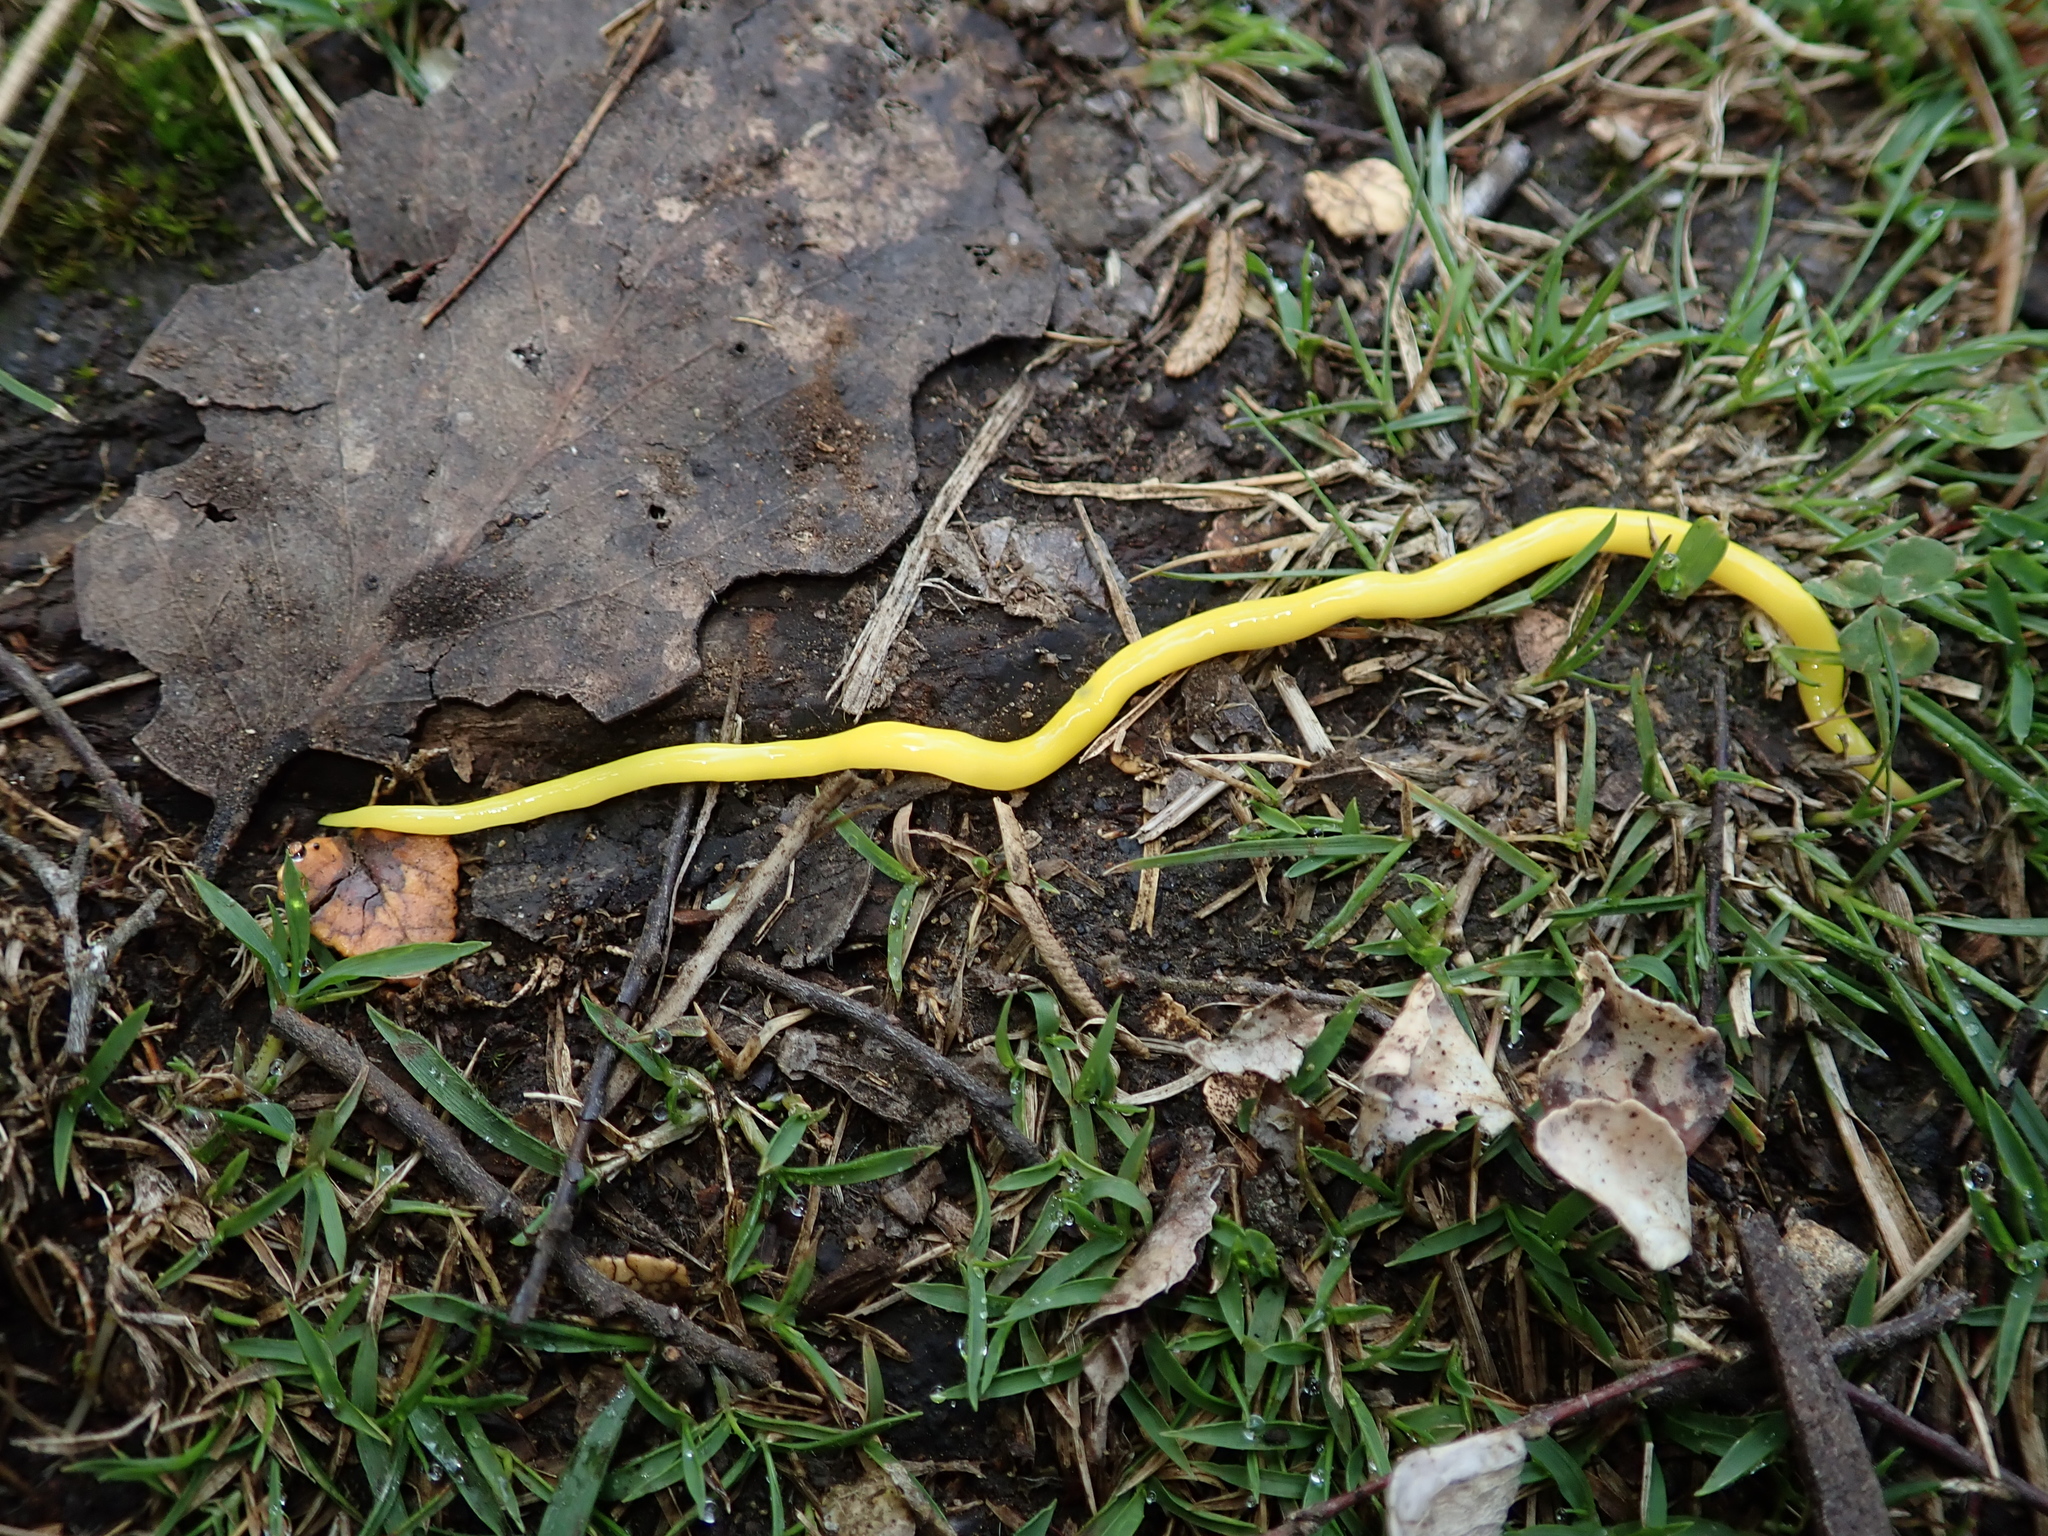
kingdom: Animalia
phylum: Platyhelminthes
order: Tricladida
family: Geoplanidae
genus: Fletchamia
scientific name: Fletchamia sugdeni
